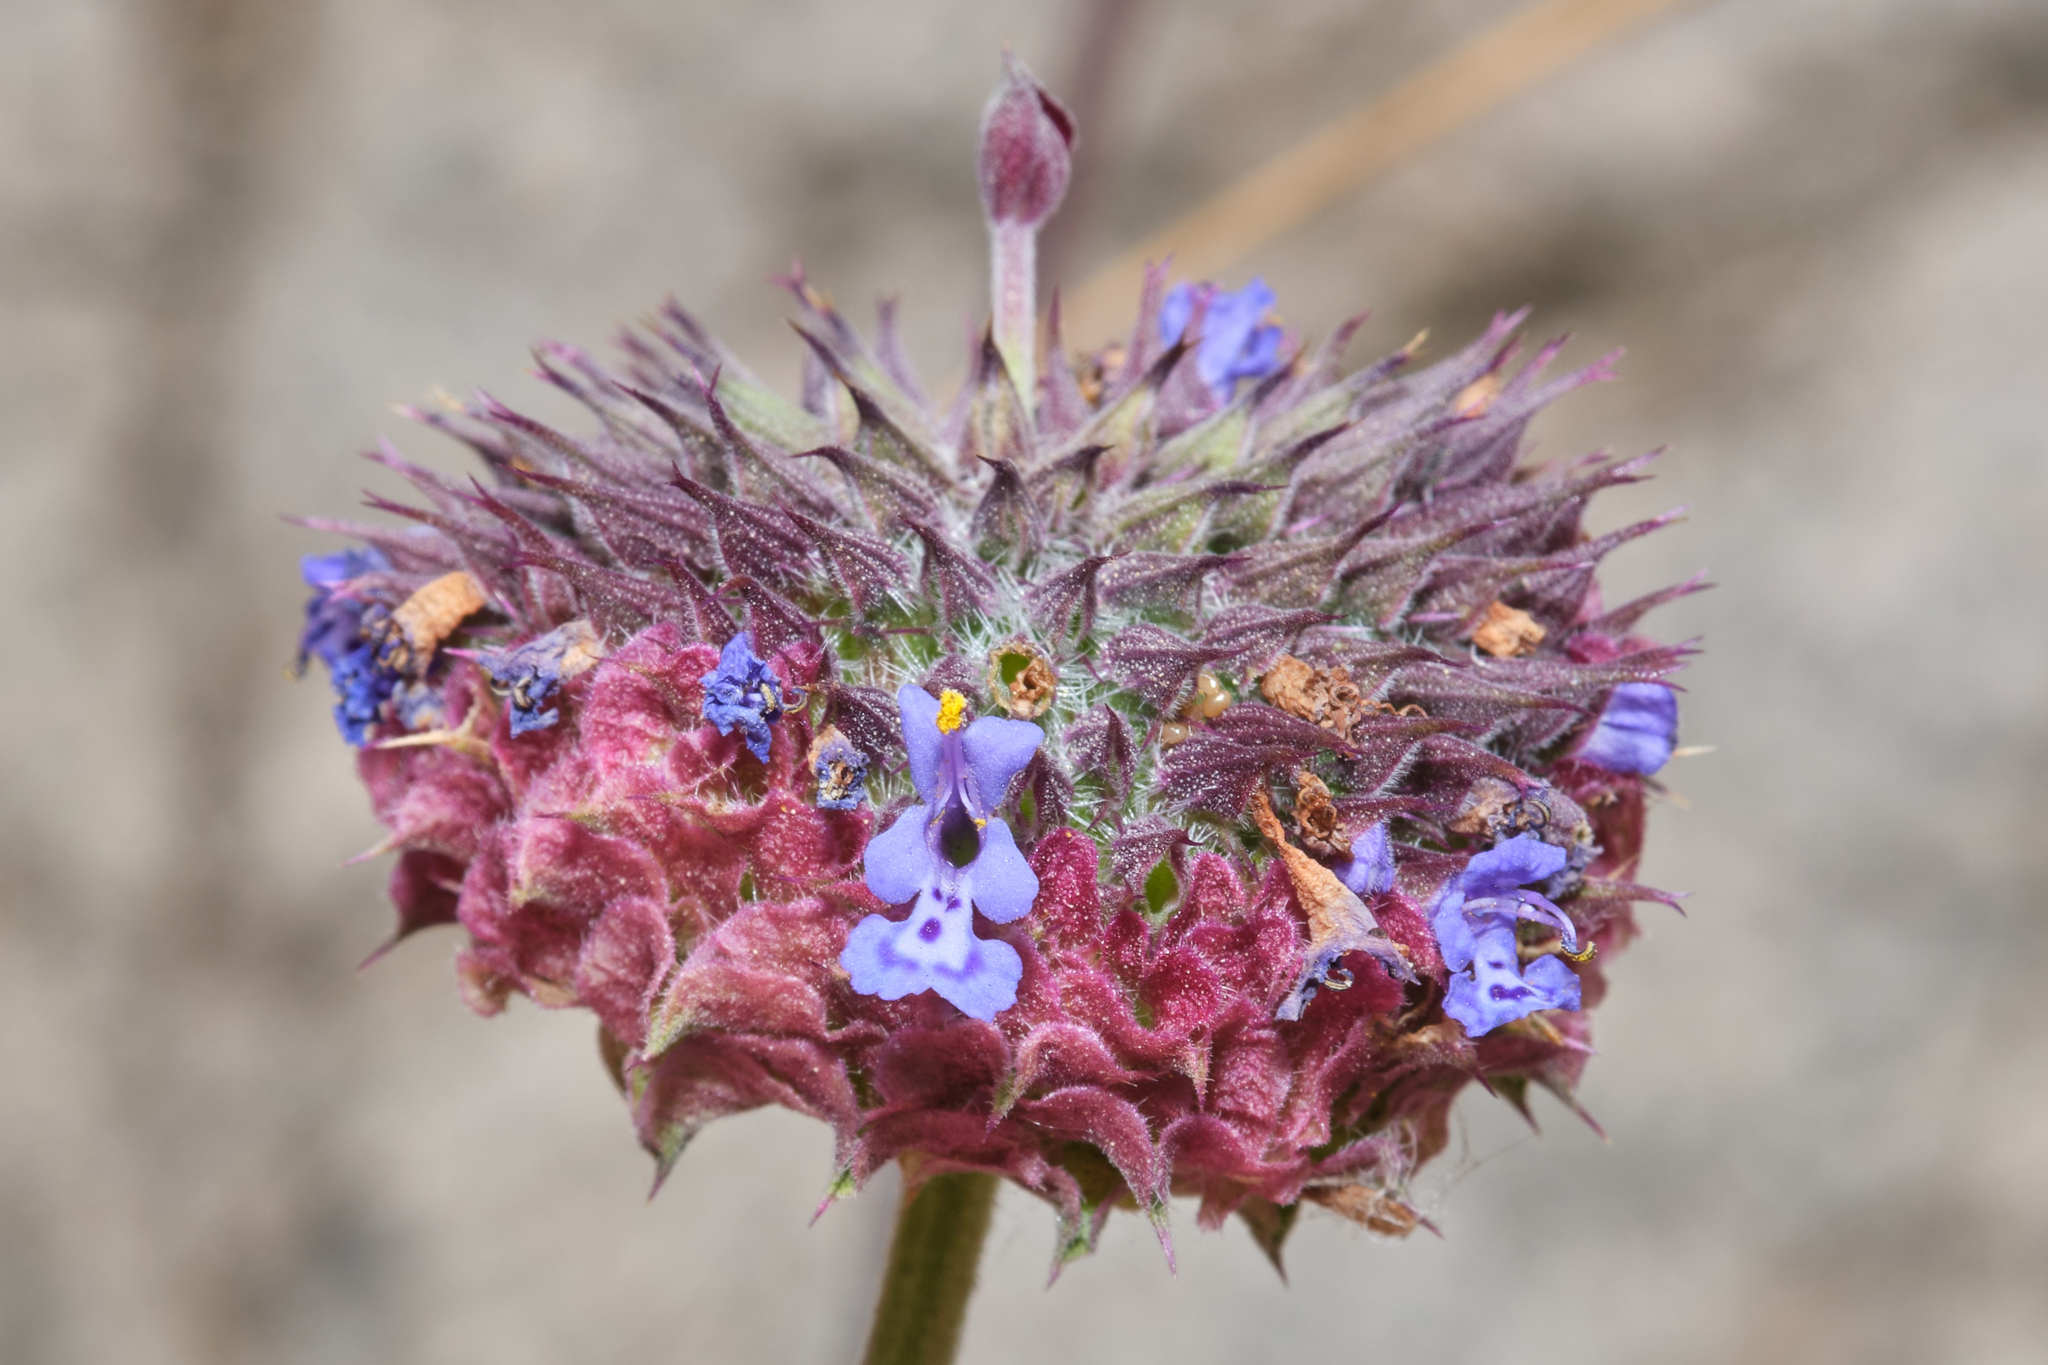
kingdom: Plantae
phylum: Tracheophyta
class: Magnoliopsida
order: Lamiales
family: Lamiaceae
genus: Salvia
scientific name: Salvia columbariae
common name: Chia
